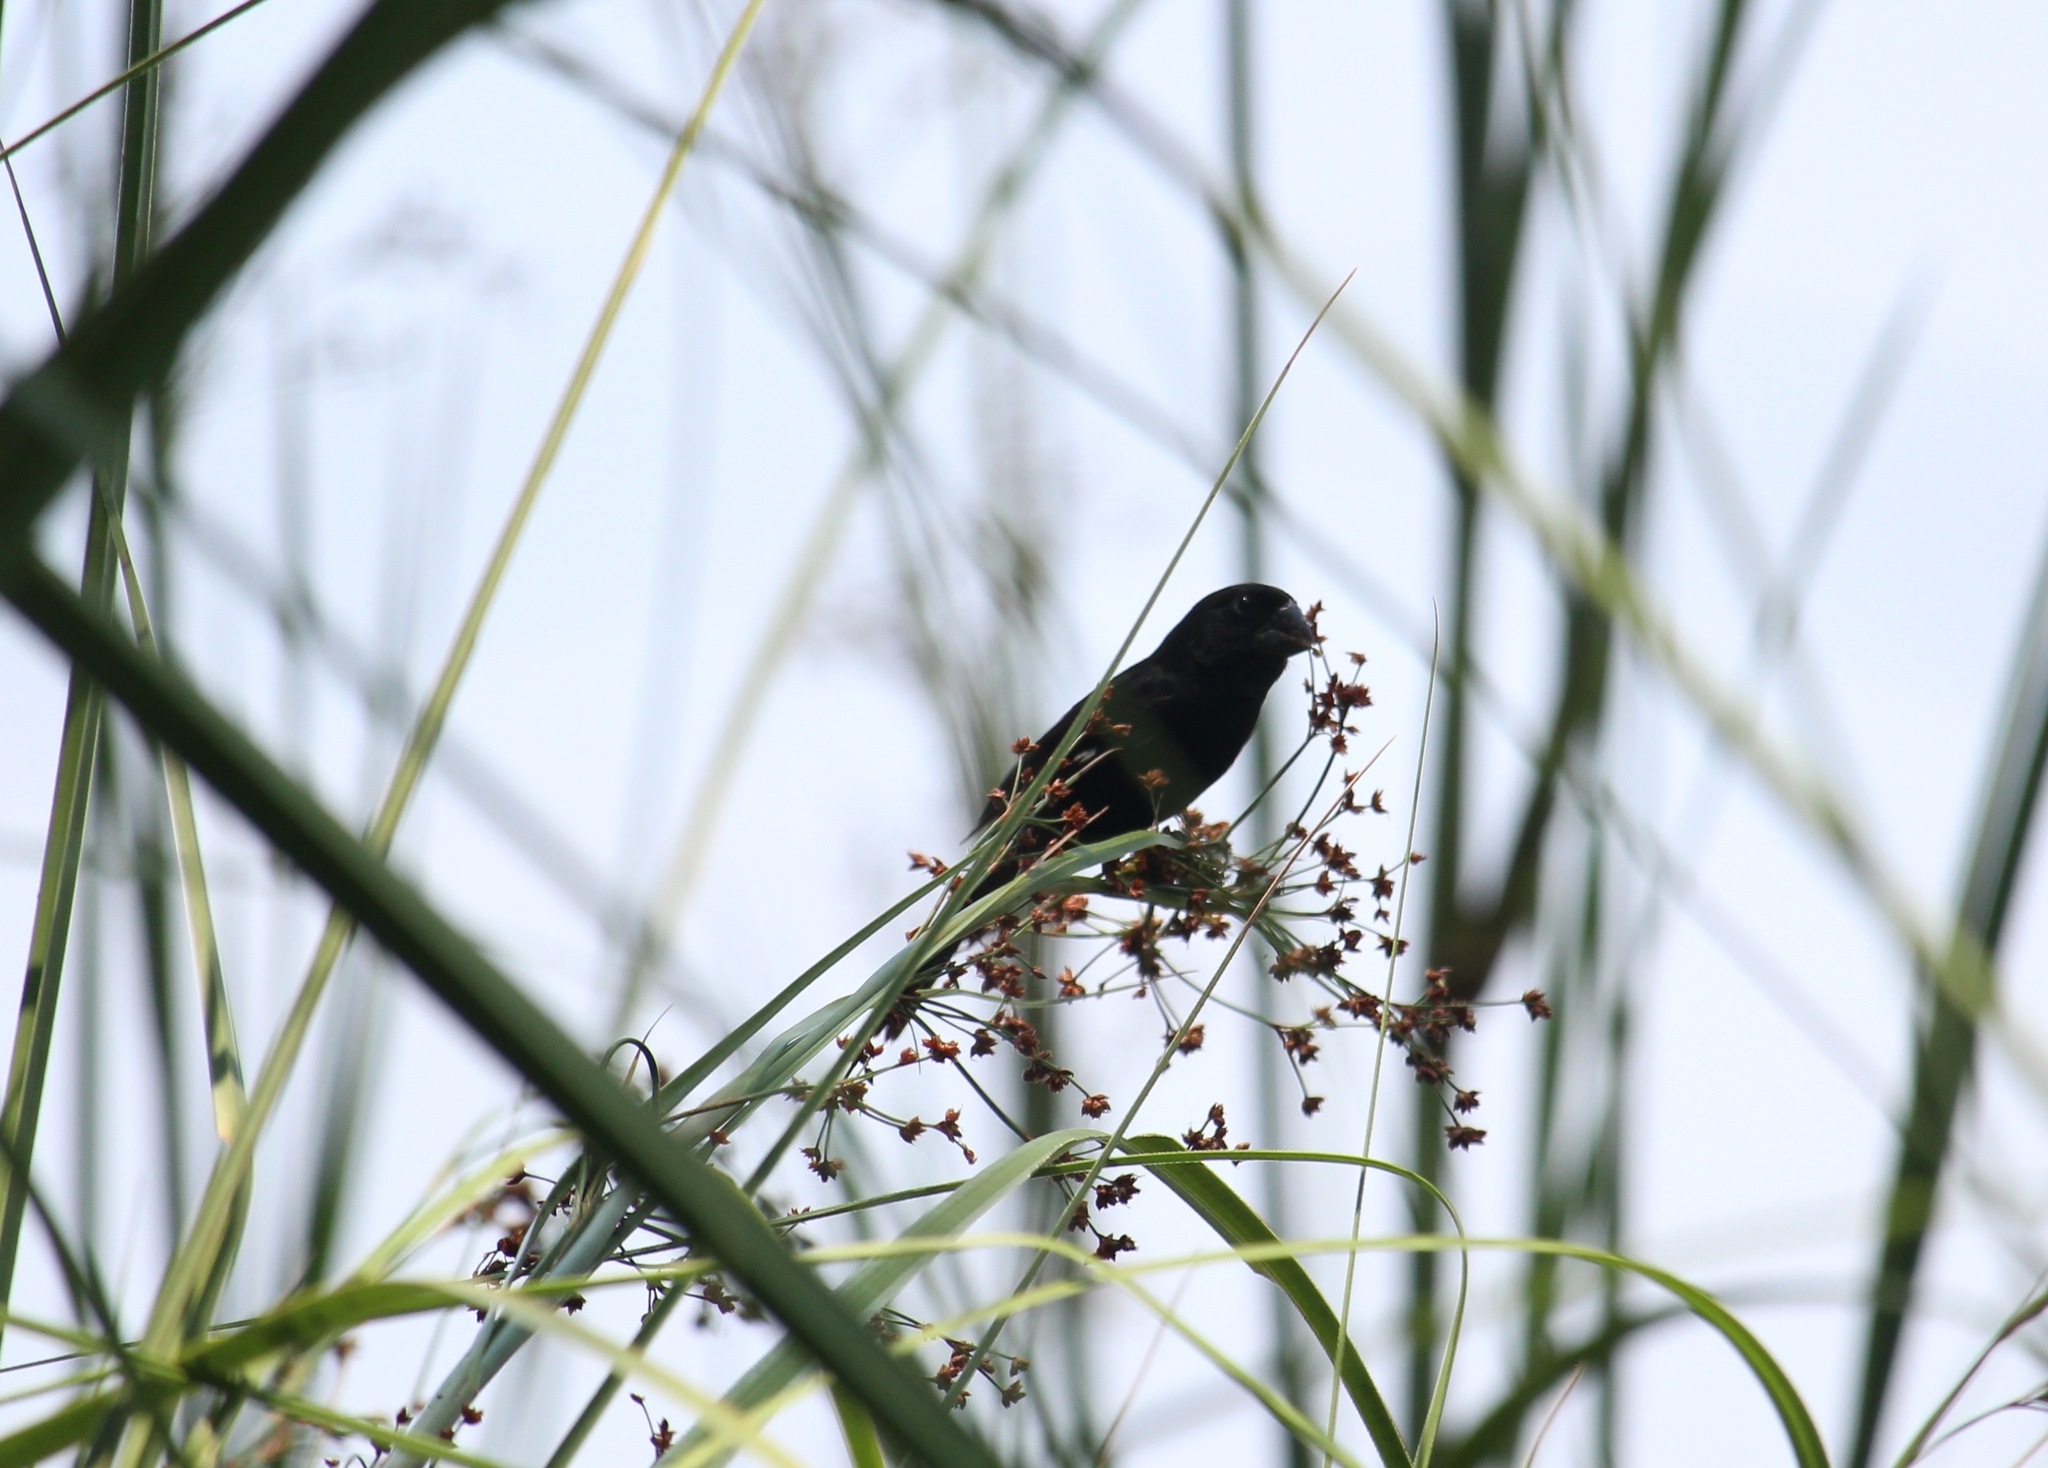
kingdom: Animalia
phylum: Chordata
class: Aves
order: Passeriformes
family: Thraupidae
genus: Sporophila
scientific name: Sporophila funerea
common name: Thick-billed seed-finch
